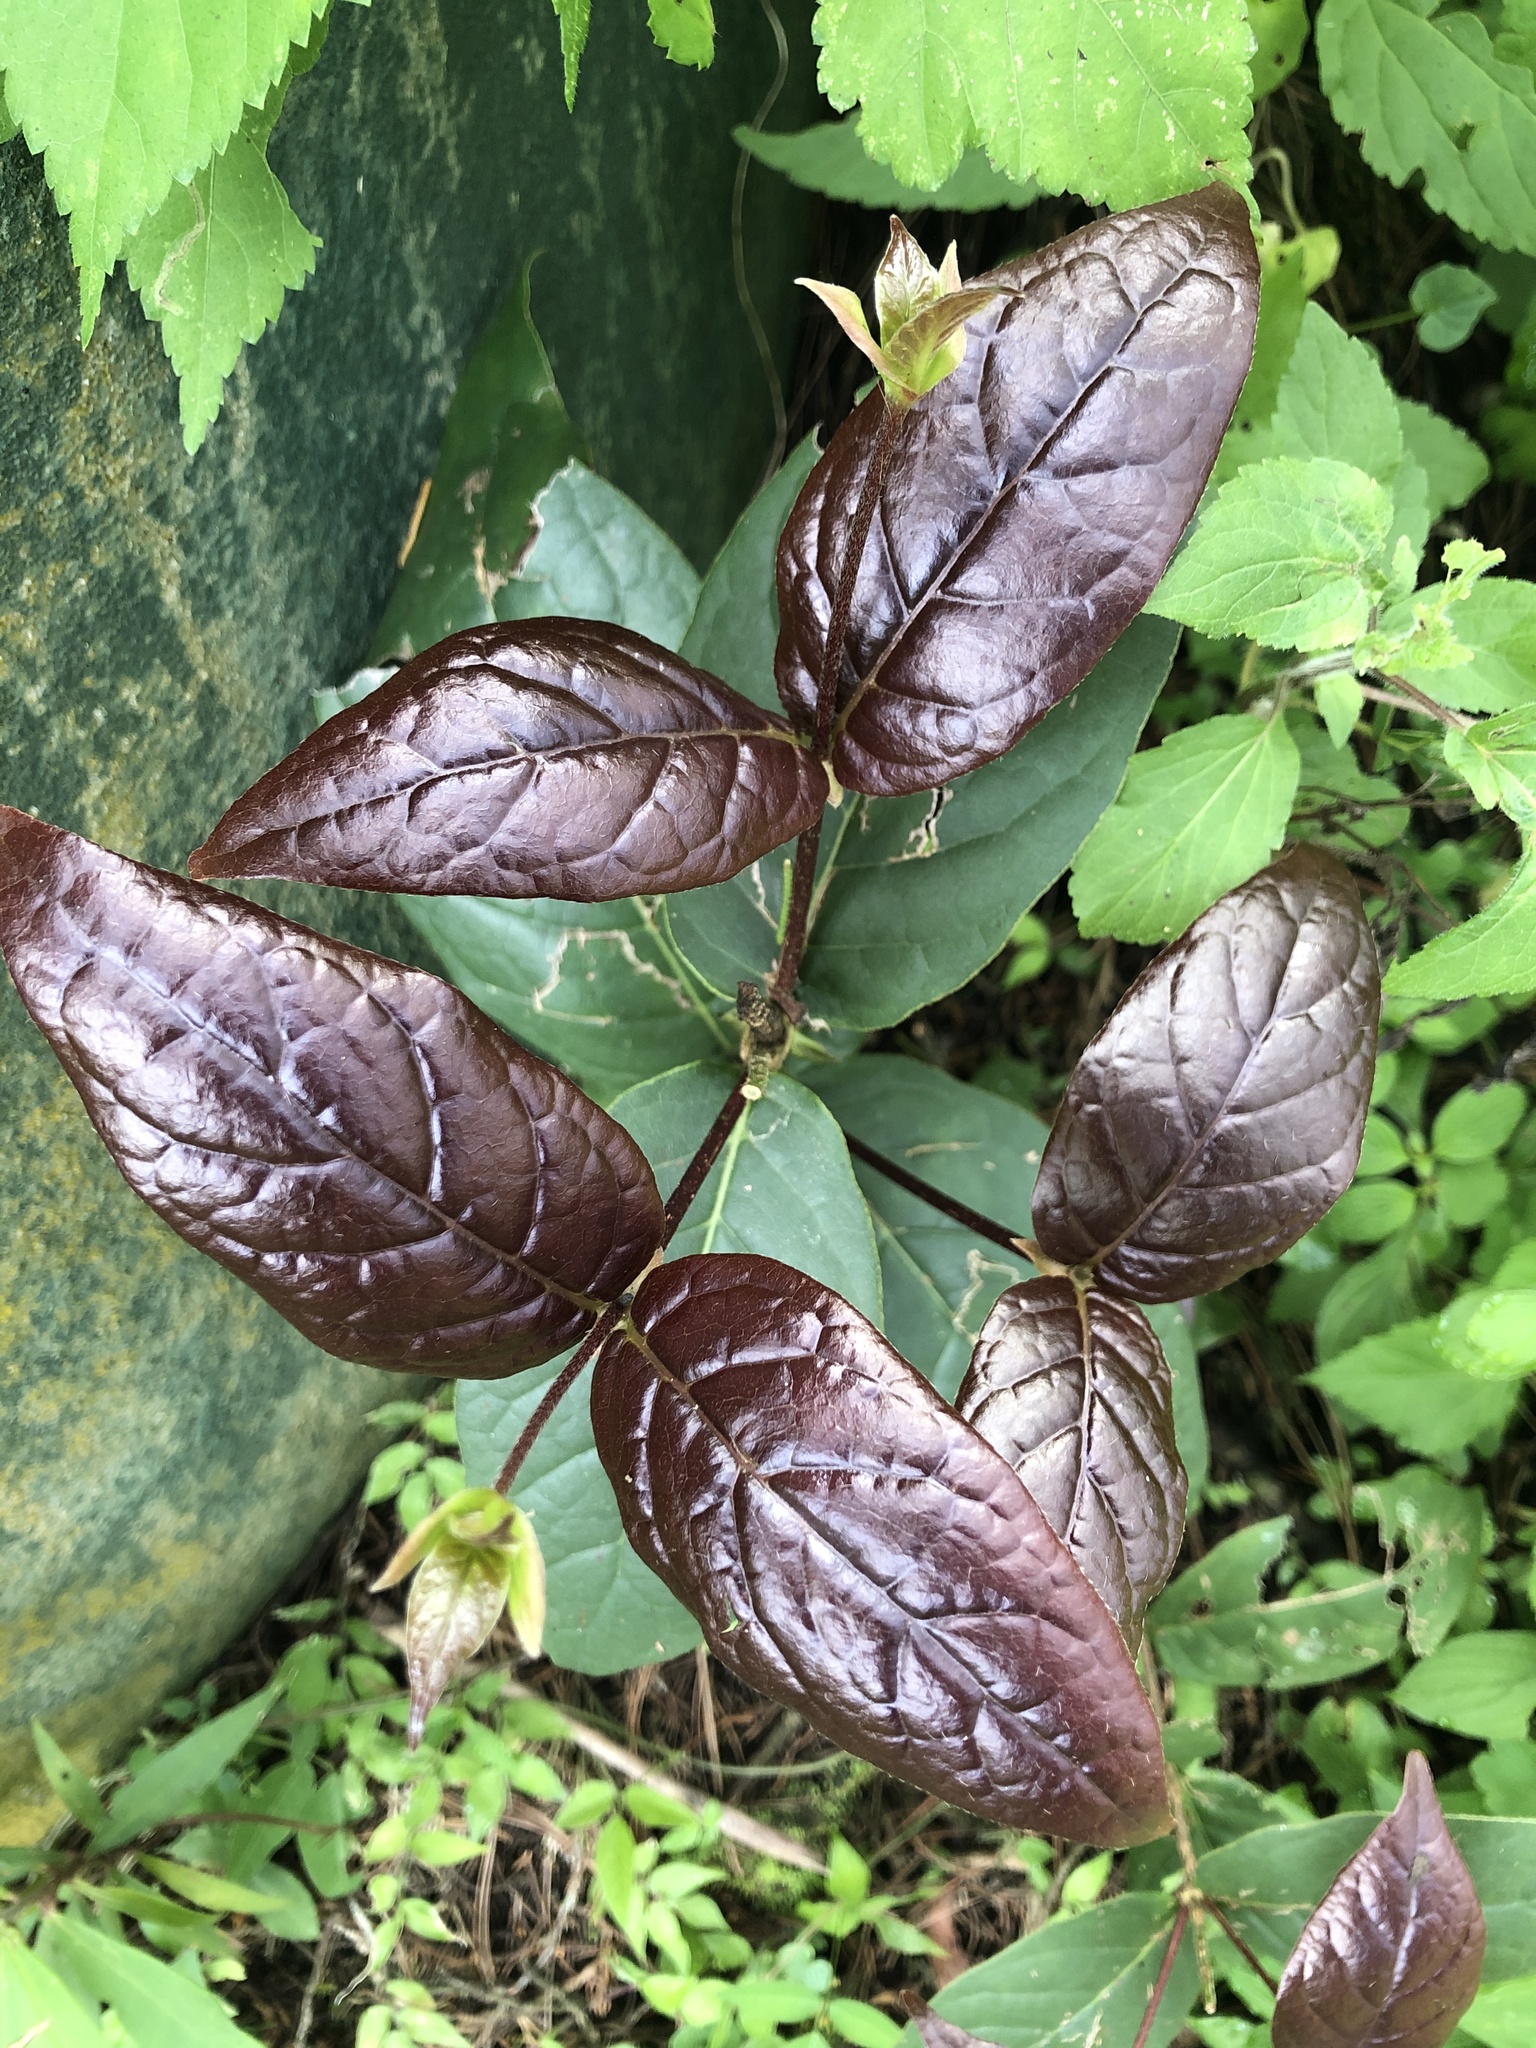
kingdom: Plantae
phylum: Tracheophyta
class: Magnoliopsida
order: Gentianales
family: Rubiaceae
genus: Rogiera
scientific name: Rogiera cordata
